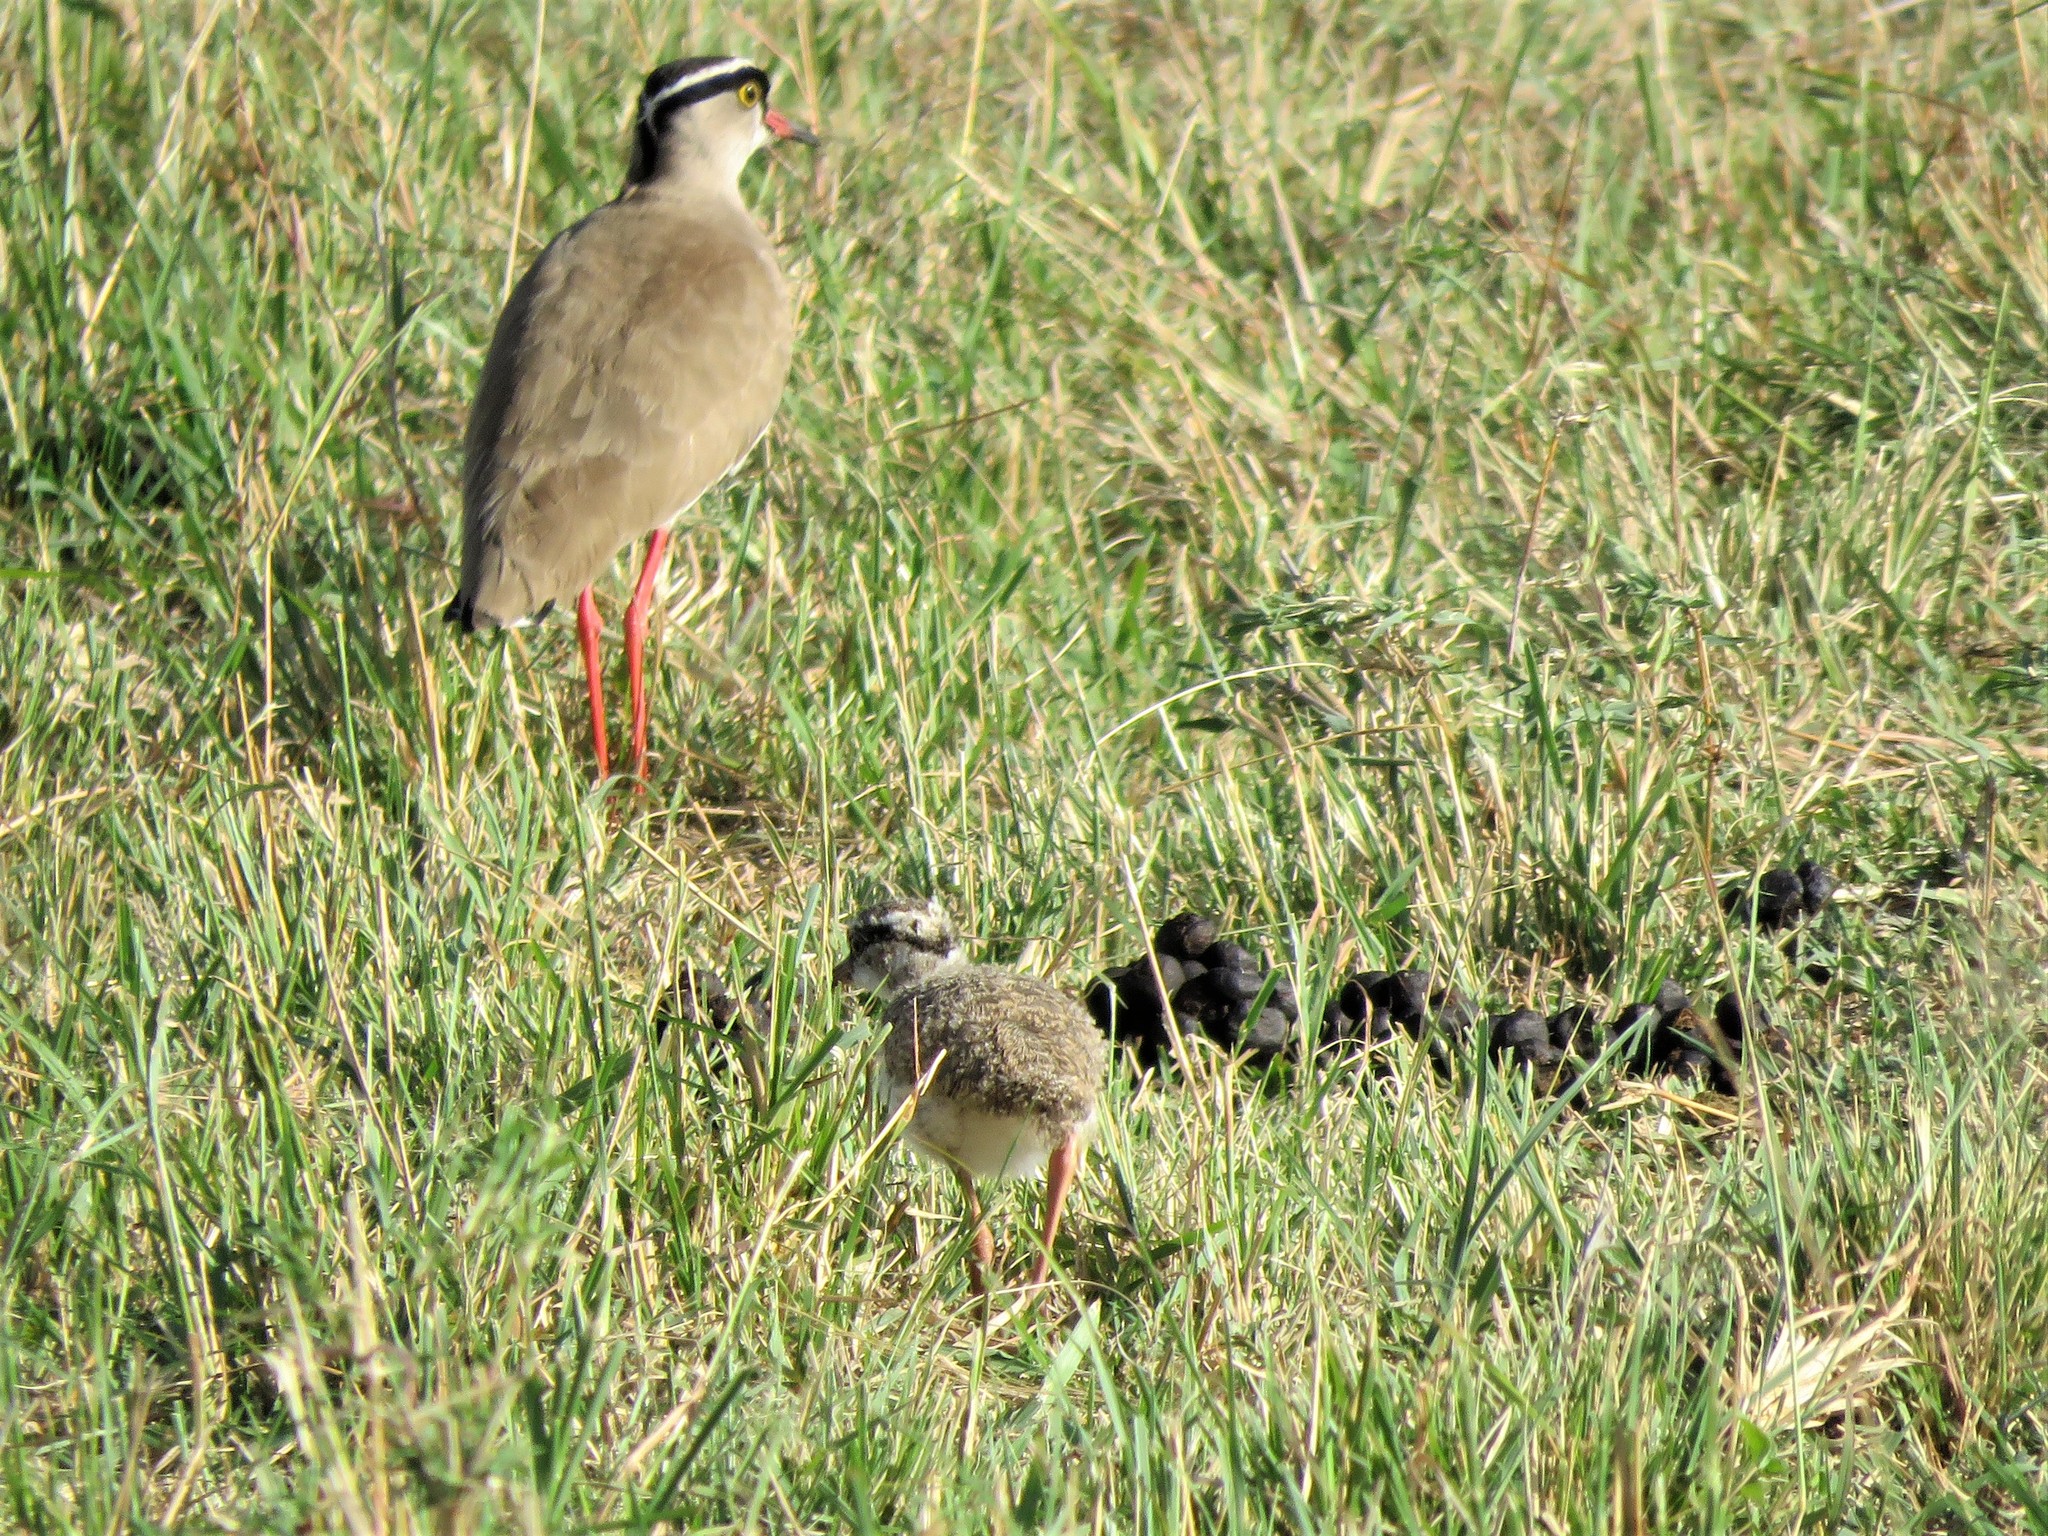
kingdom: Animalia
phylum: Chordata
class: Aves
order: Charadriiformes
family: Charadriidae
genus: Vanellus
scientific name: Vanellus coronatus
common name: Crowned lapwing
